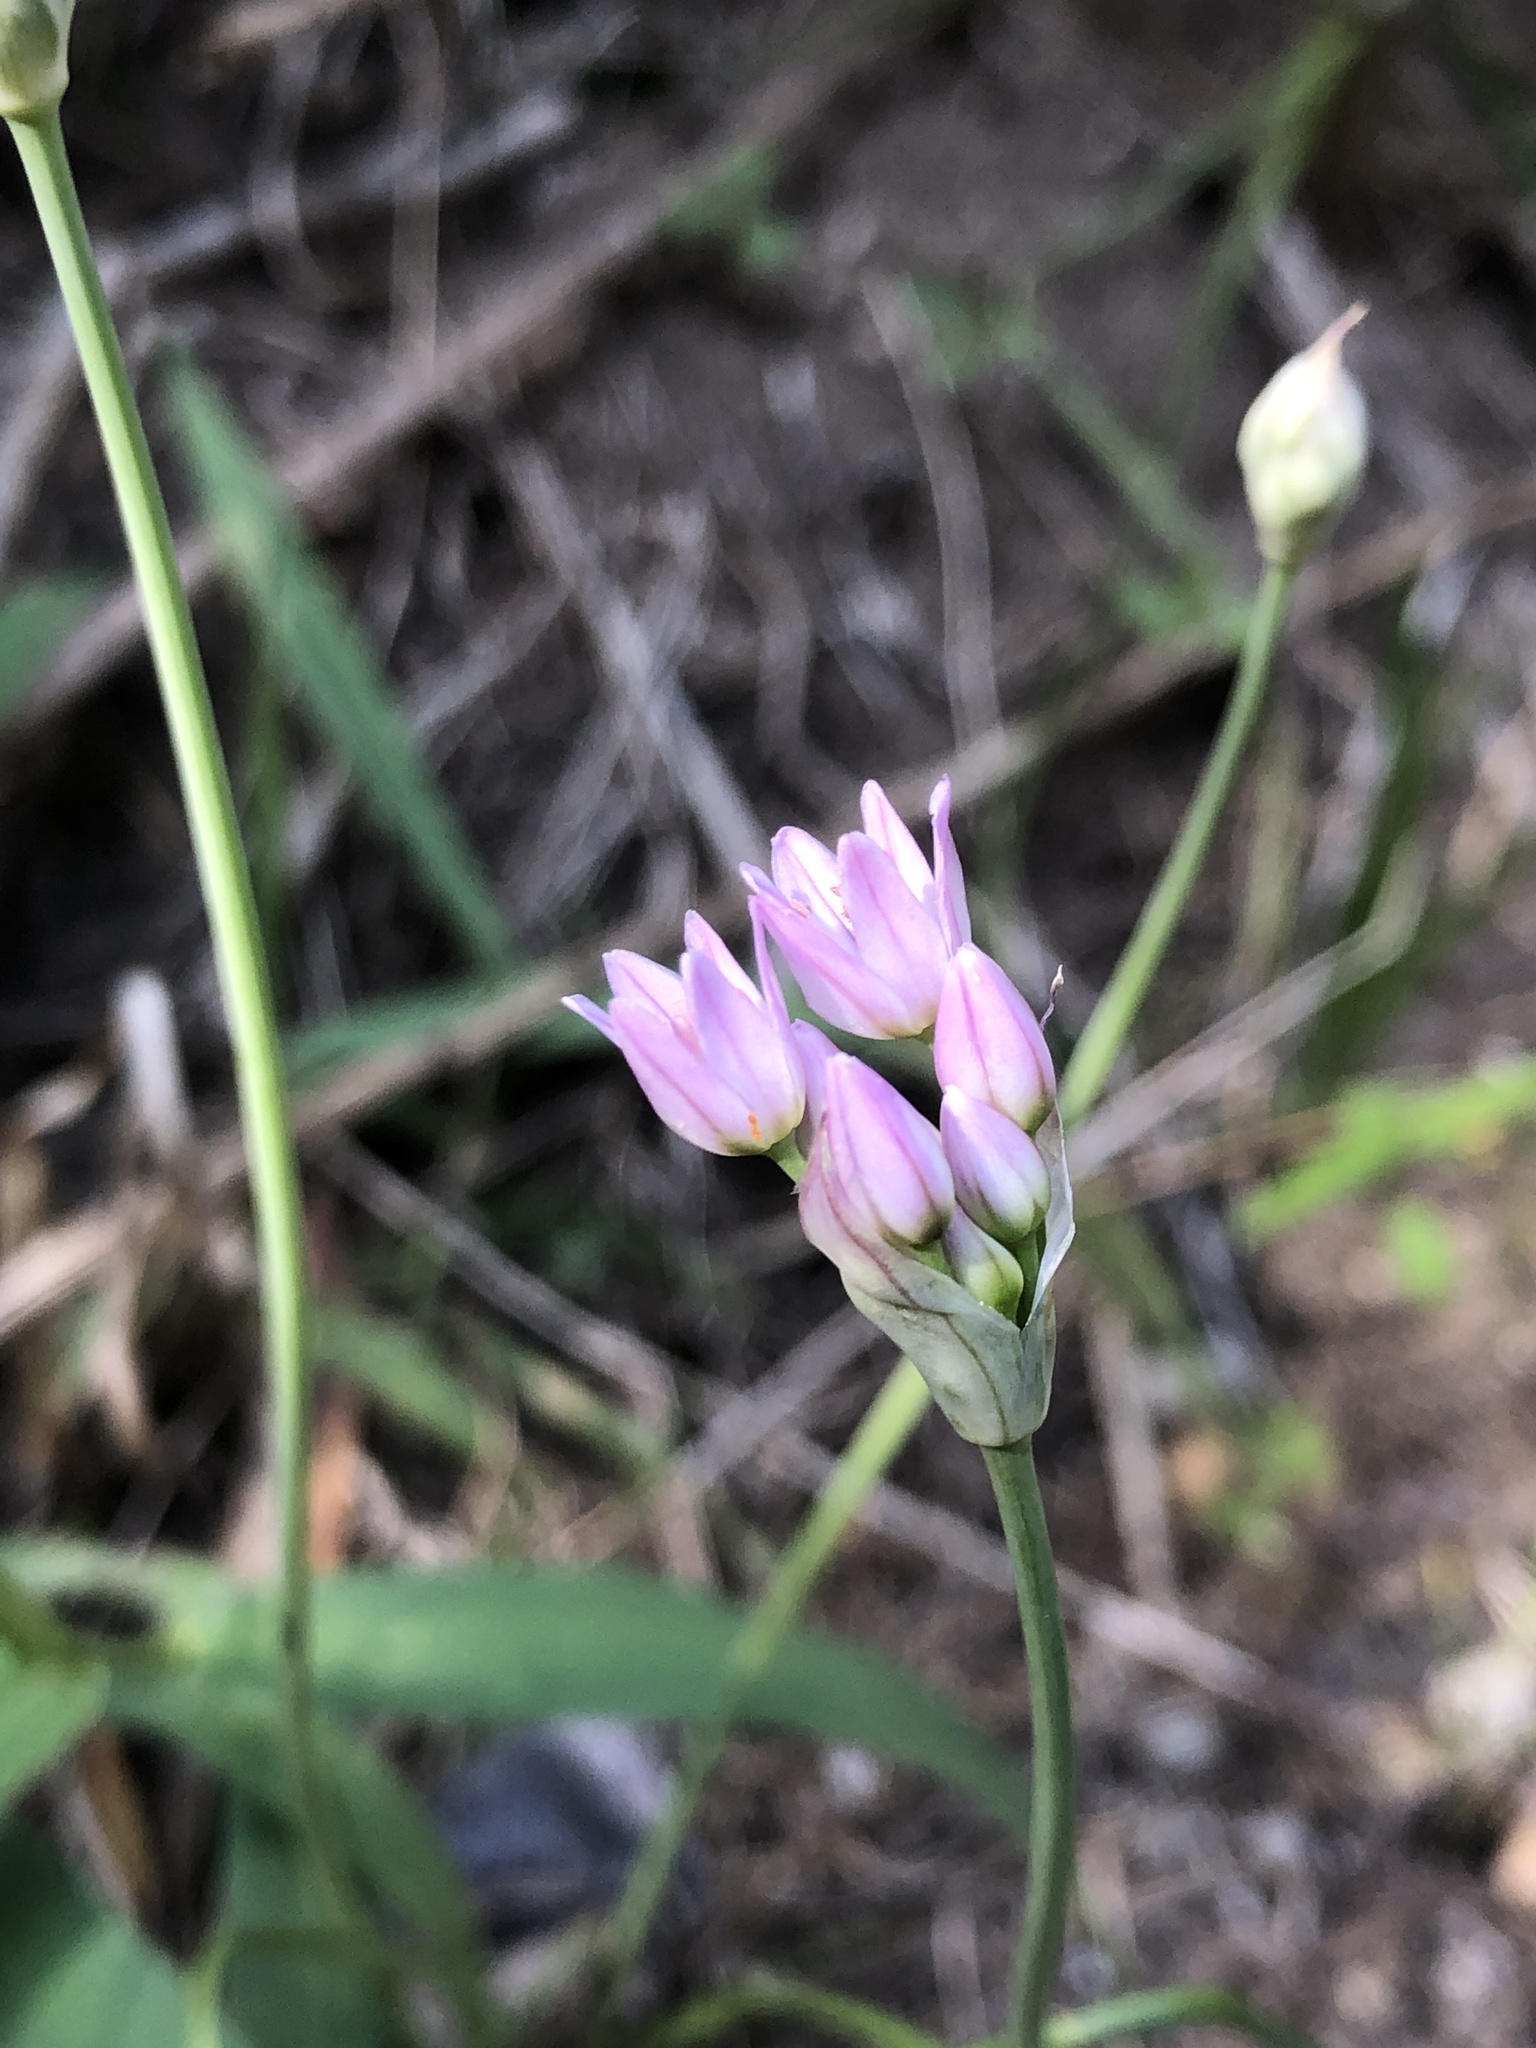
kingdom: Plantae
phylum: Tracheophyta
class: Liliopsida
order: Asparagales
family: Amaryllidaceae
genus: Allium
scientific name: Allium drummondii
